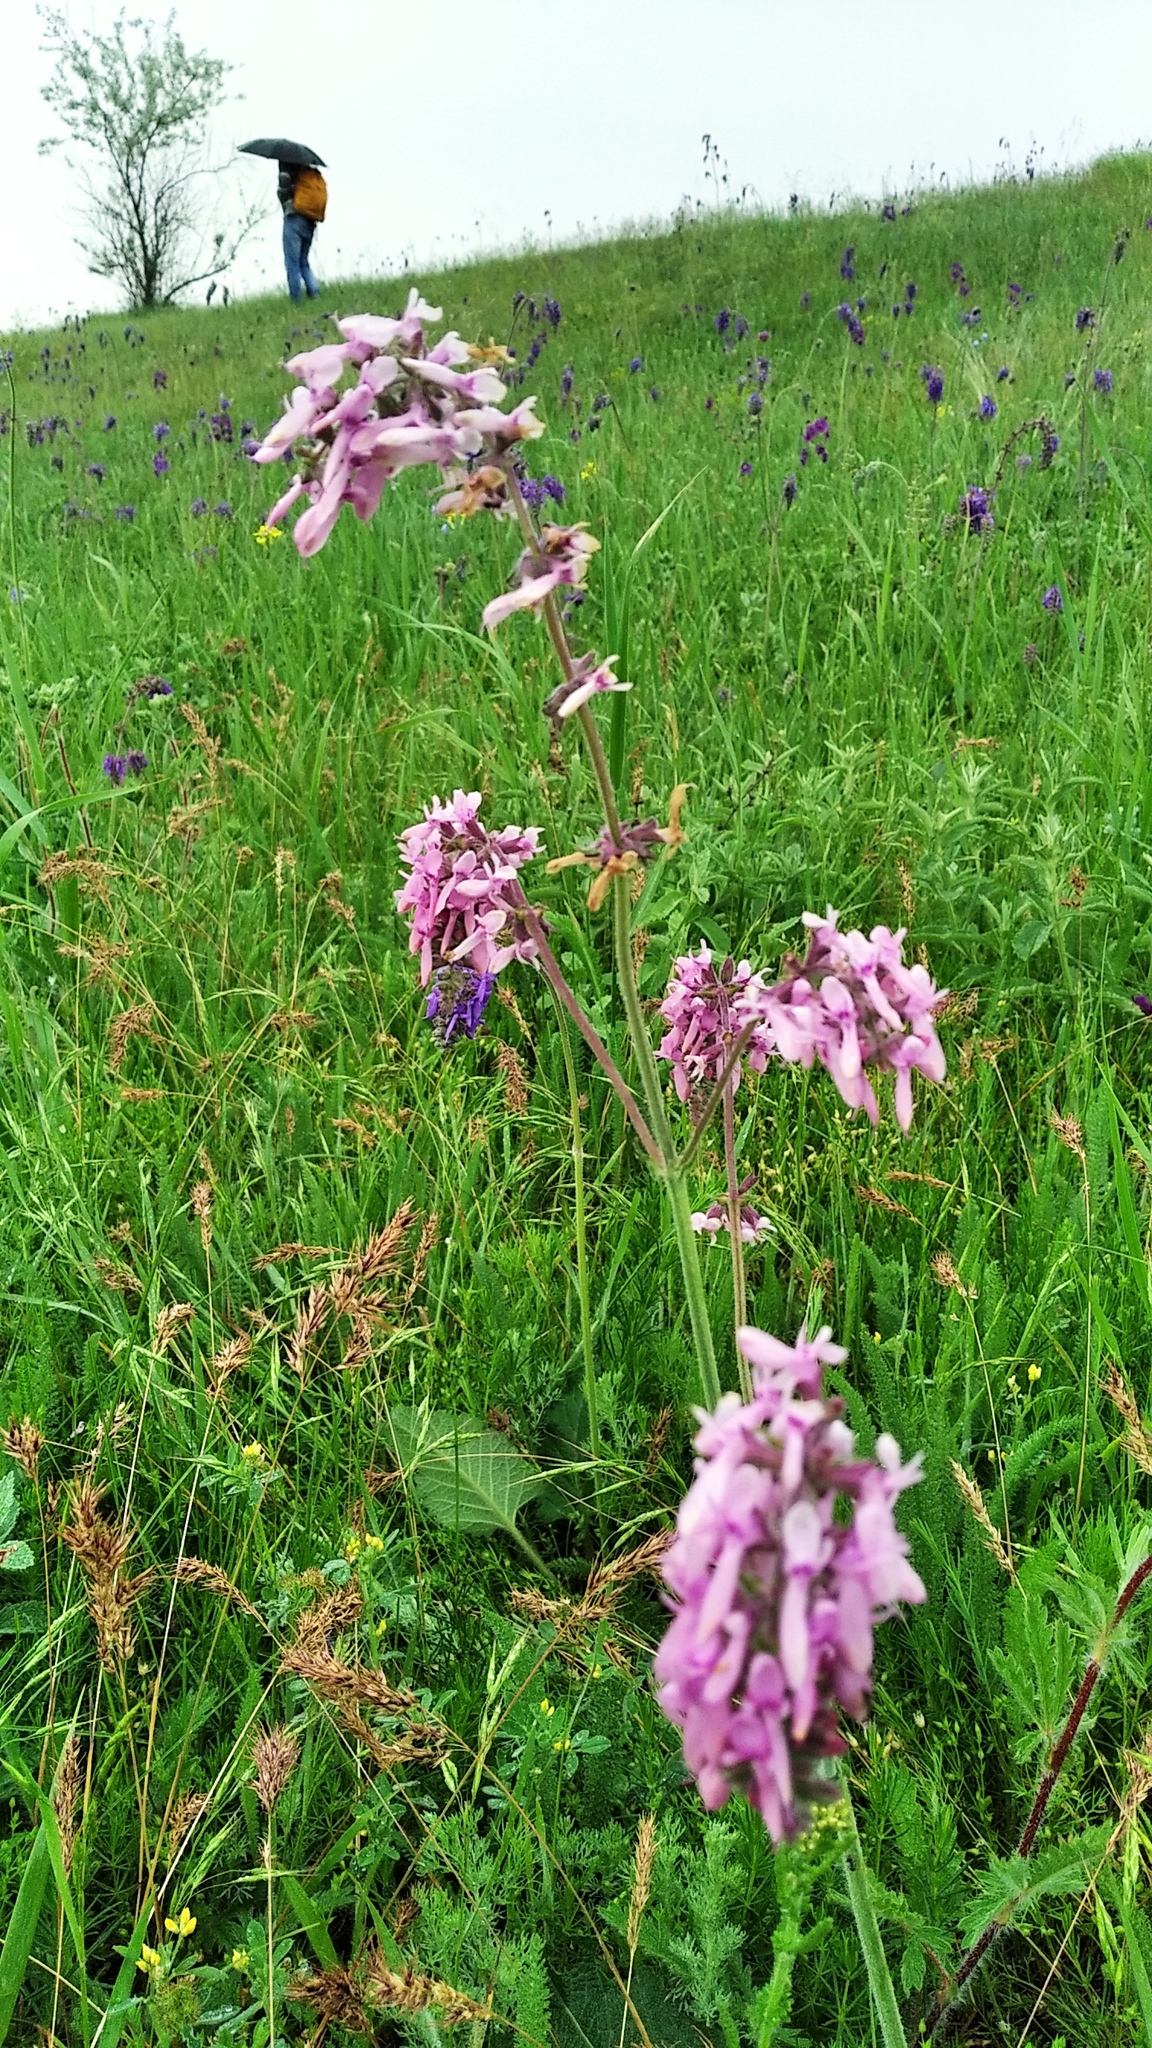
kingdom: Plantae
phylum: Tracheophyta
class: Magnoliopsida
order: Lamiales
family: Lamiaceae
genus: Salvia
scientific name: Salvia nutans
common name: Nodding sage
